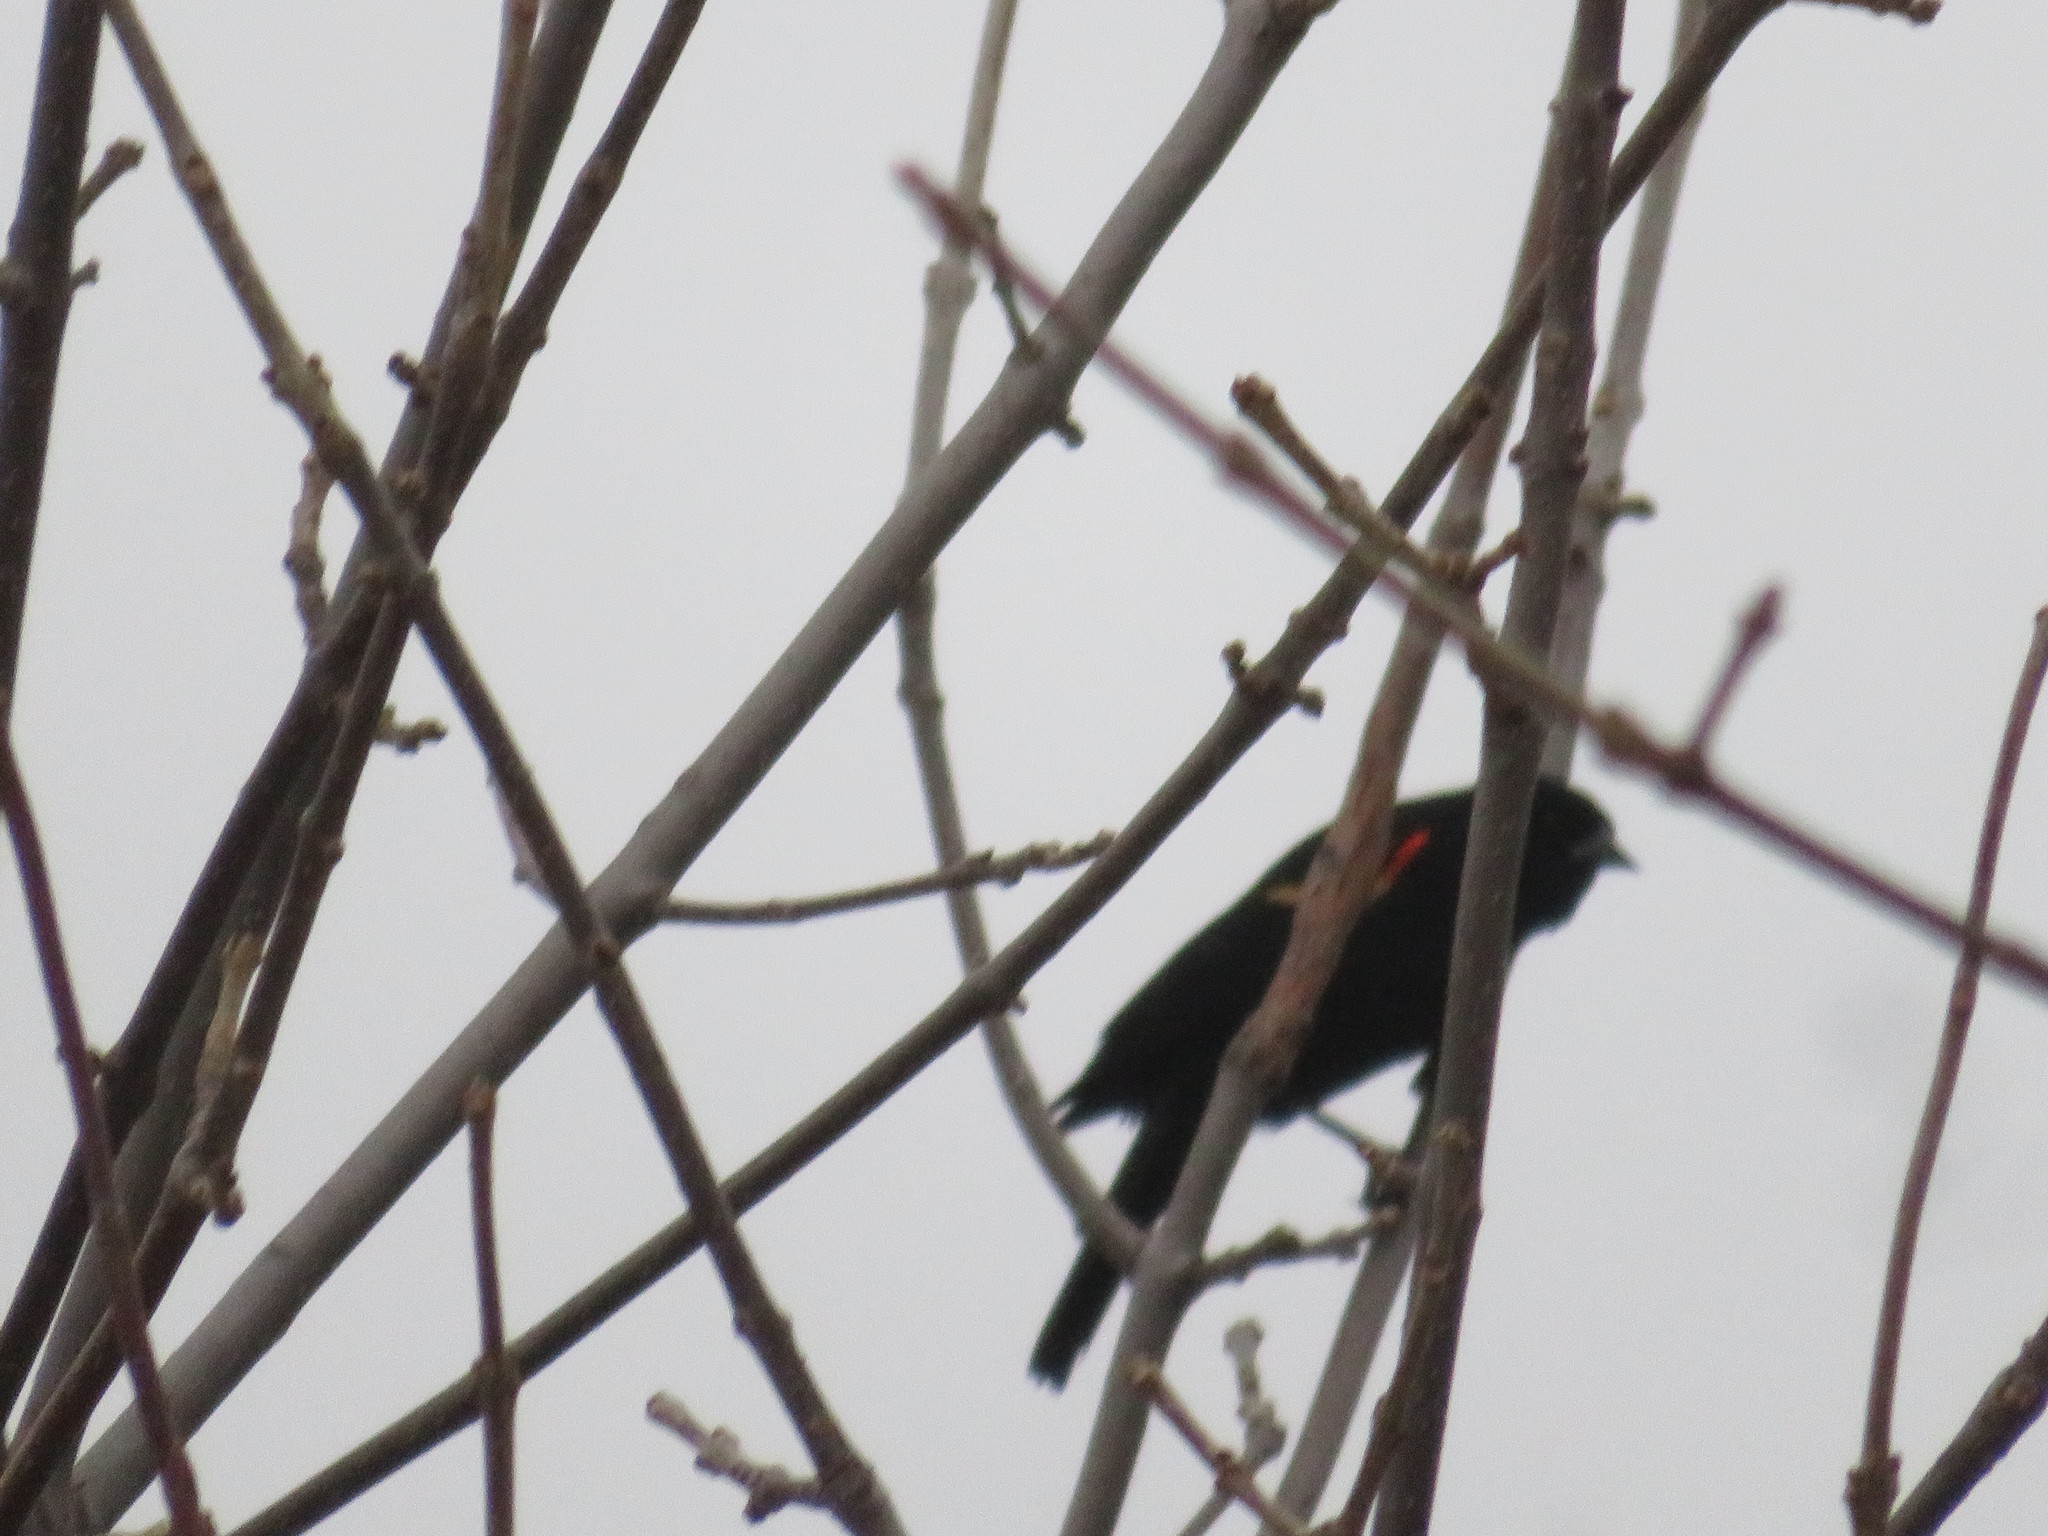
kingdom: Animalia
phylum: Chordata
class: Aves
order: Passeriformes
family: Icteridae
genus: Agelaius
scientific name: Agelaius phoeniceus
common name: Red-winged blackbird
